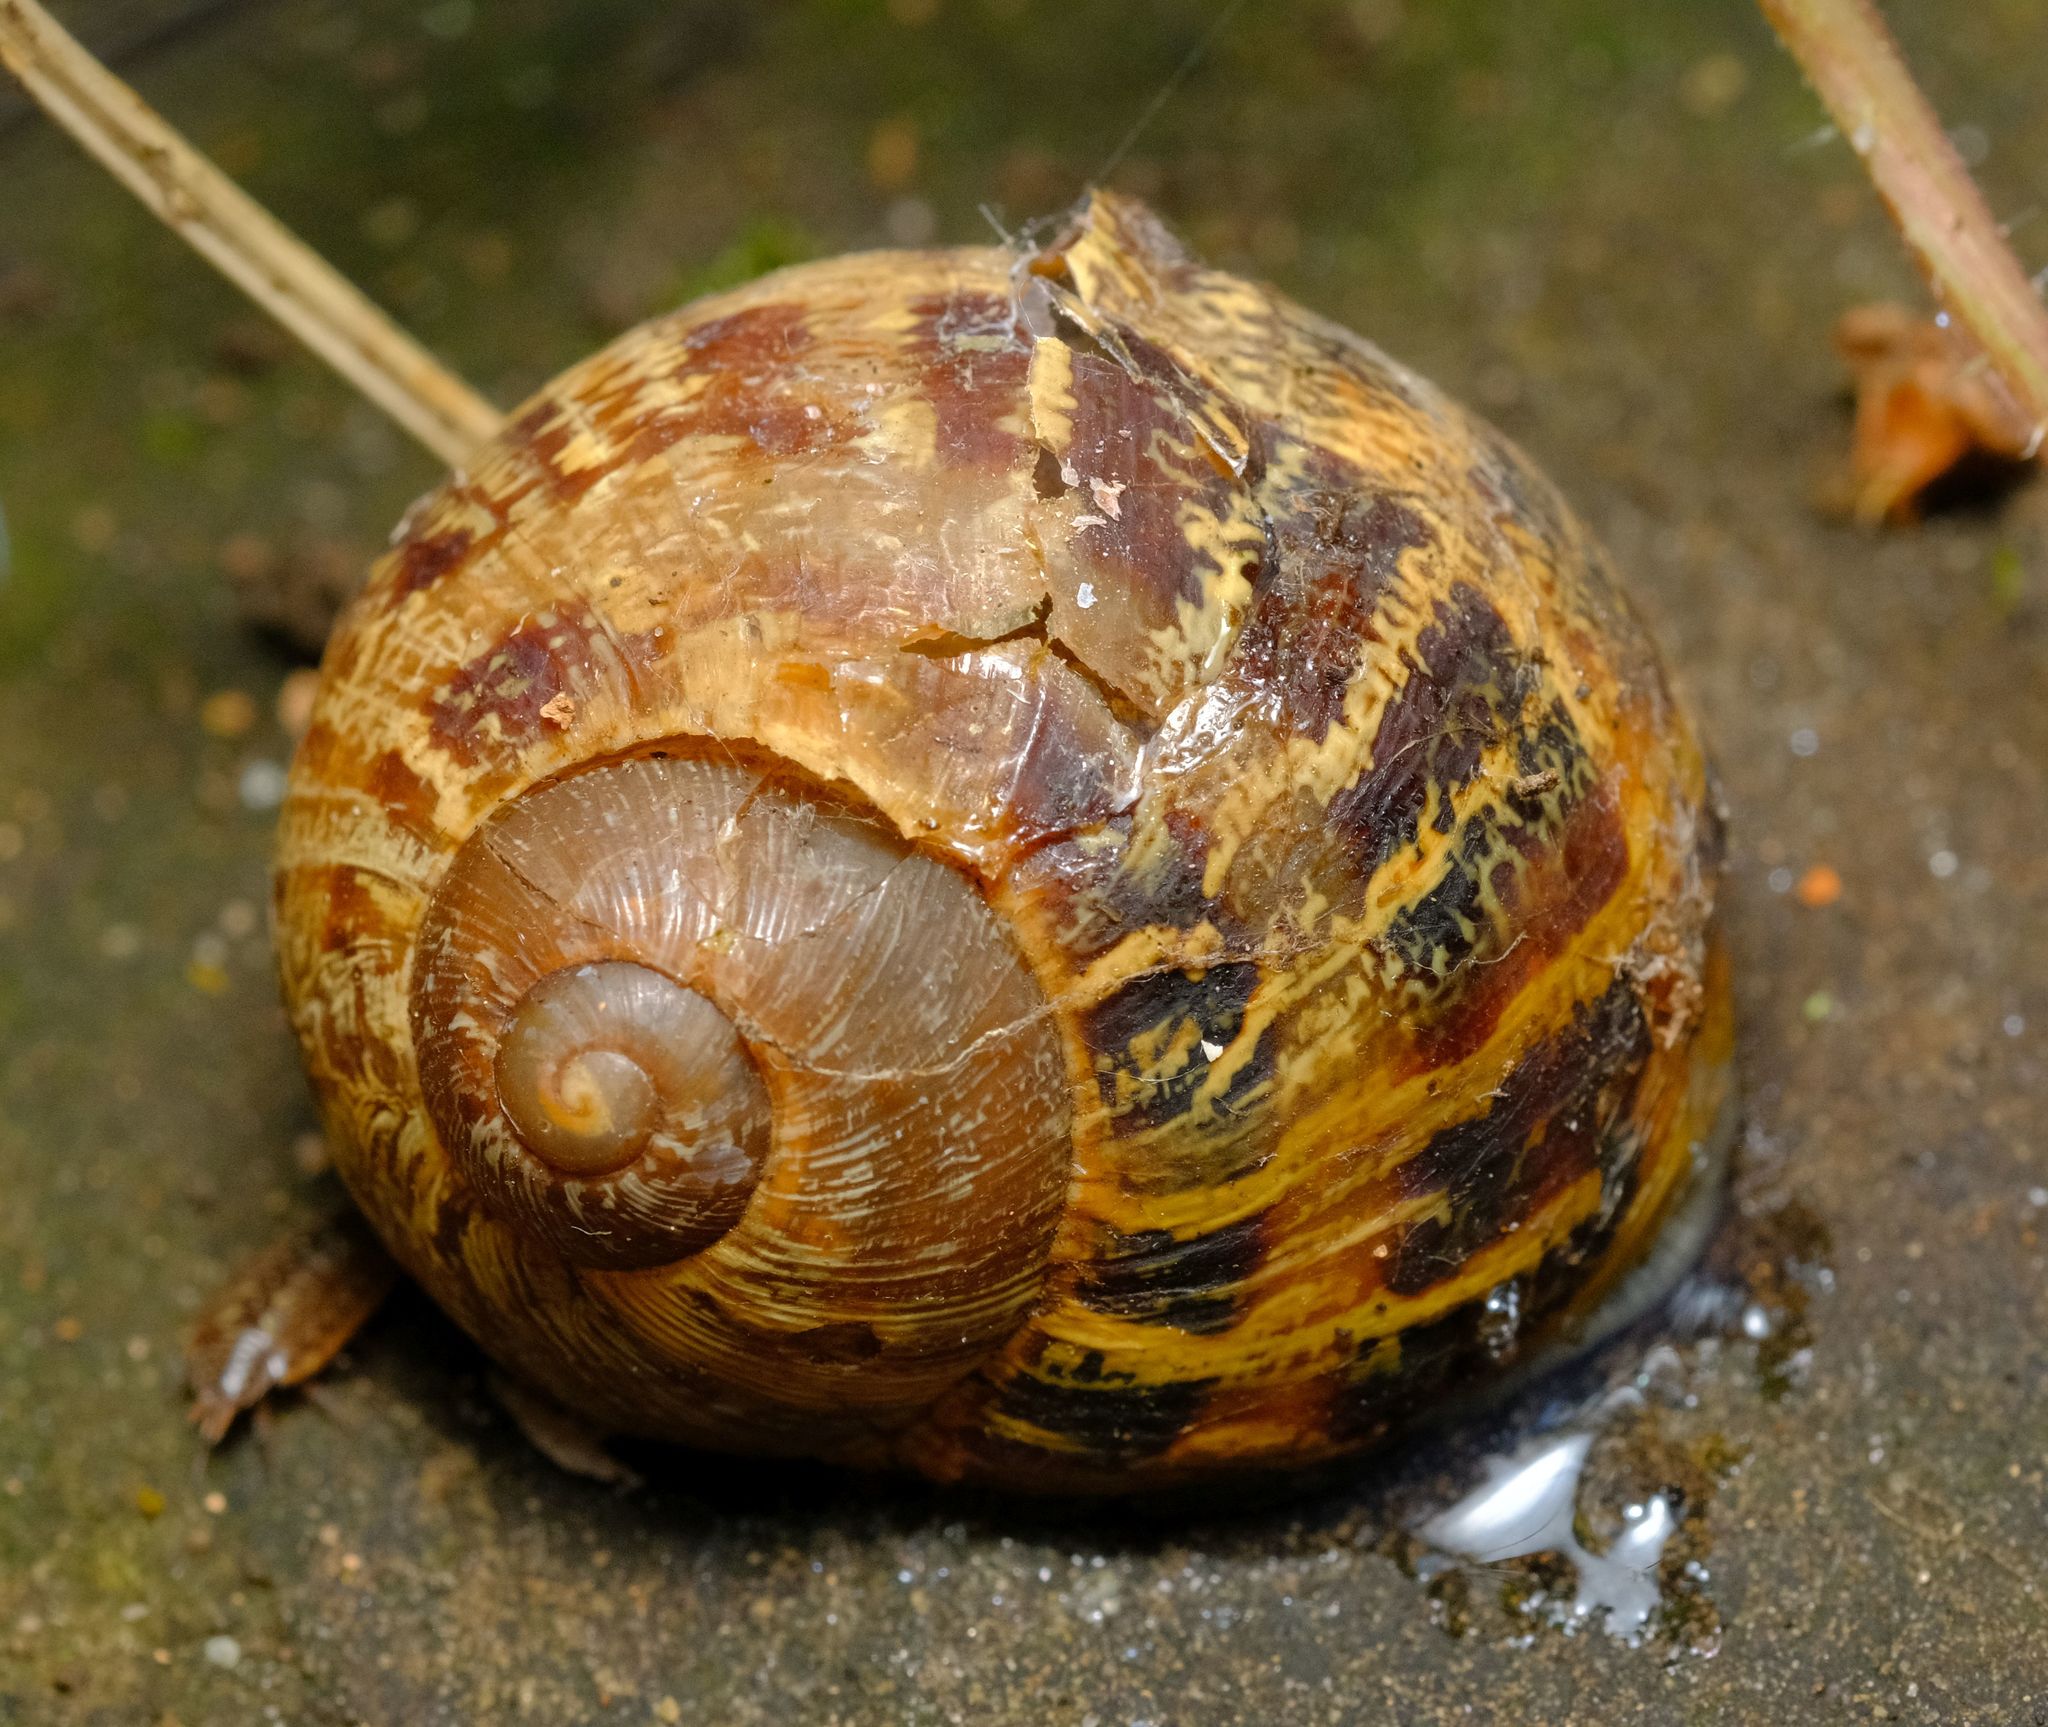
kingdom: Animalia
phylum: Mollusca
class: Gastropoda
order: Stylommatophora
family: Helicidae
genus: Cornu
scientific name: Cornu aspersum
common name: Brown garden snail
